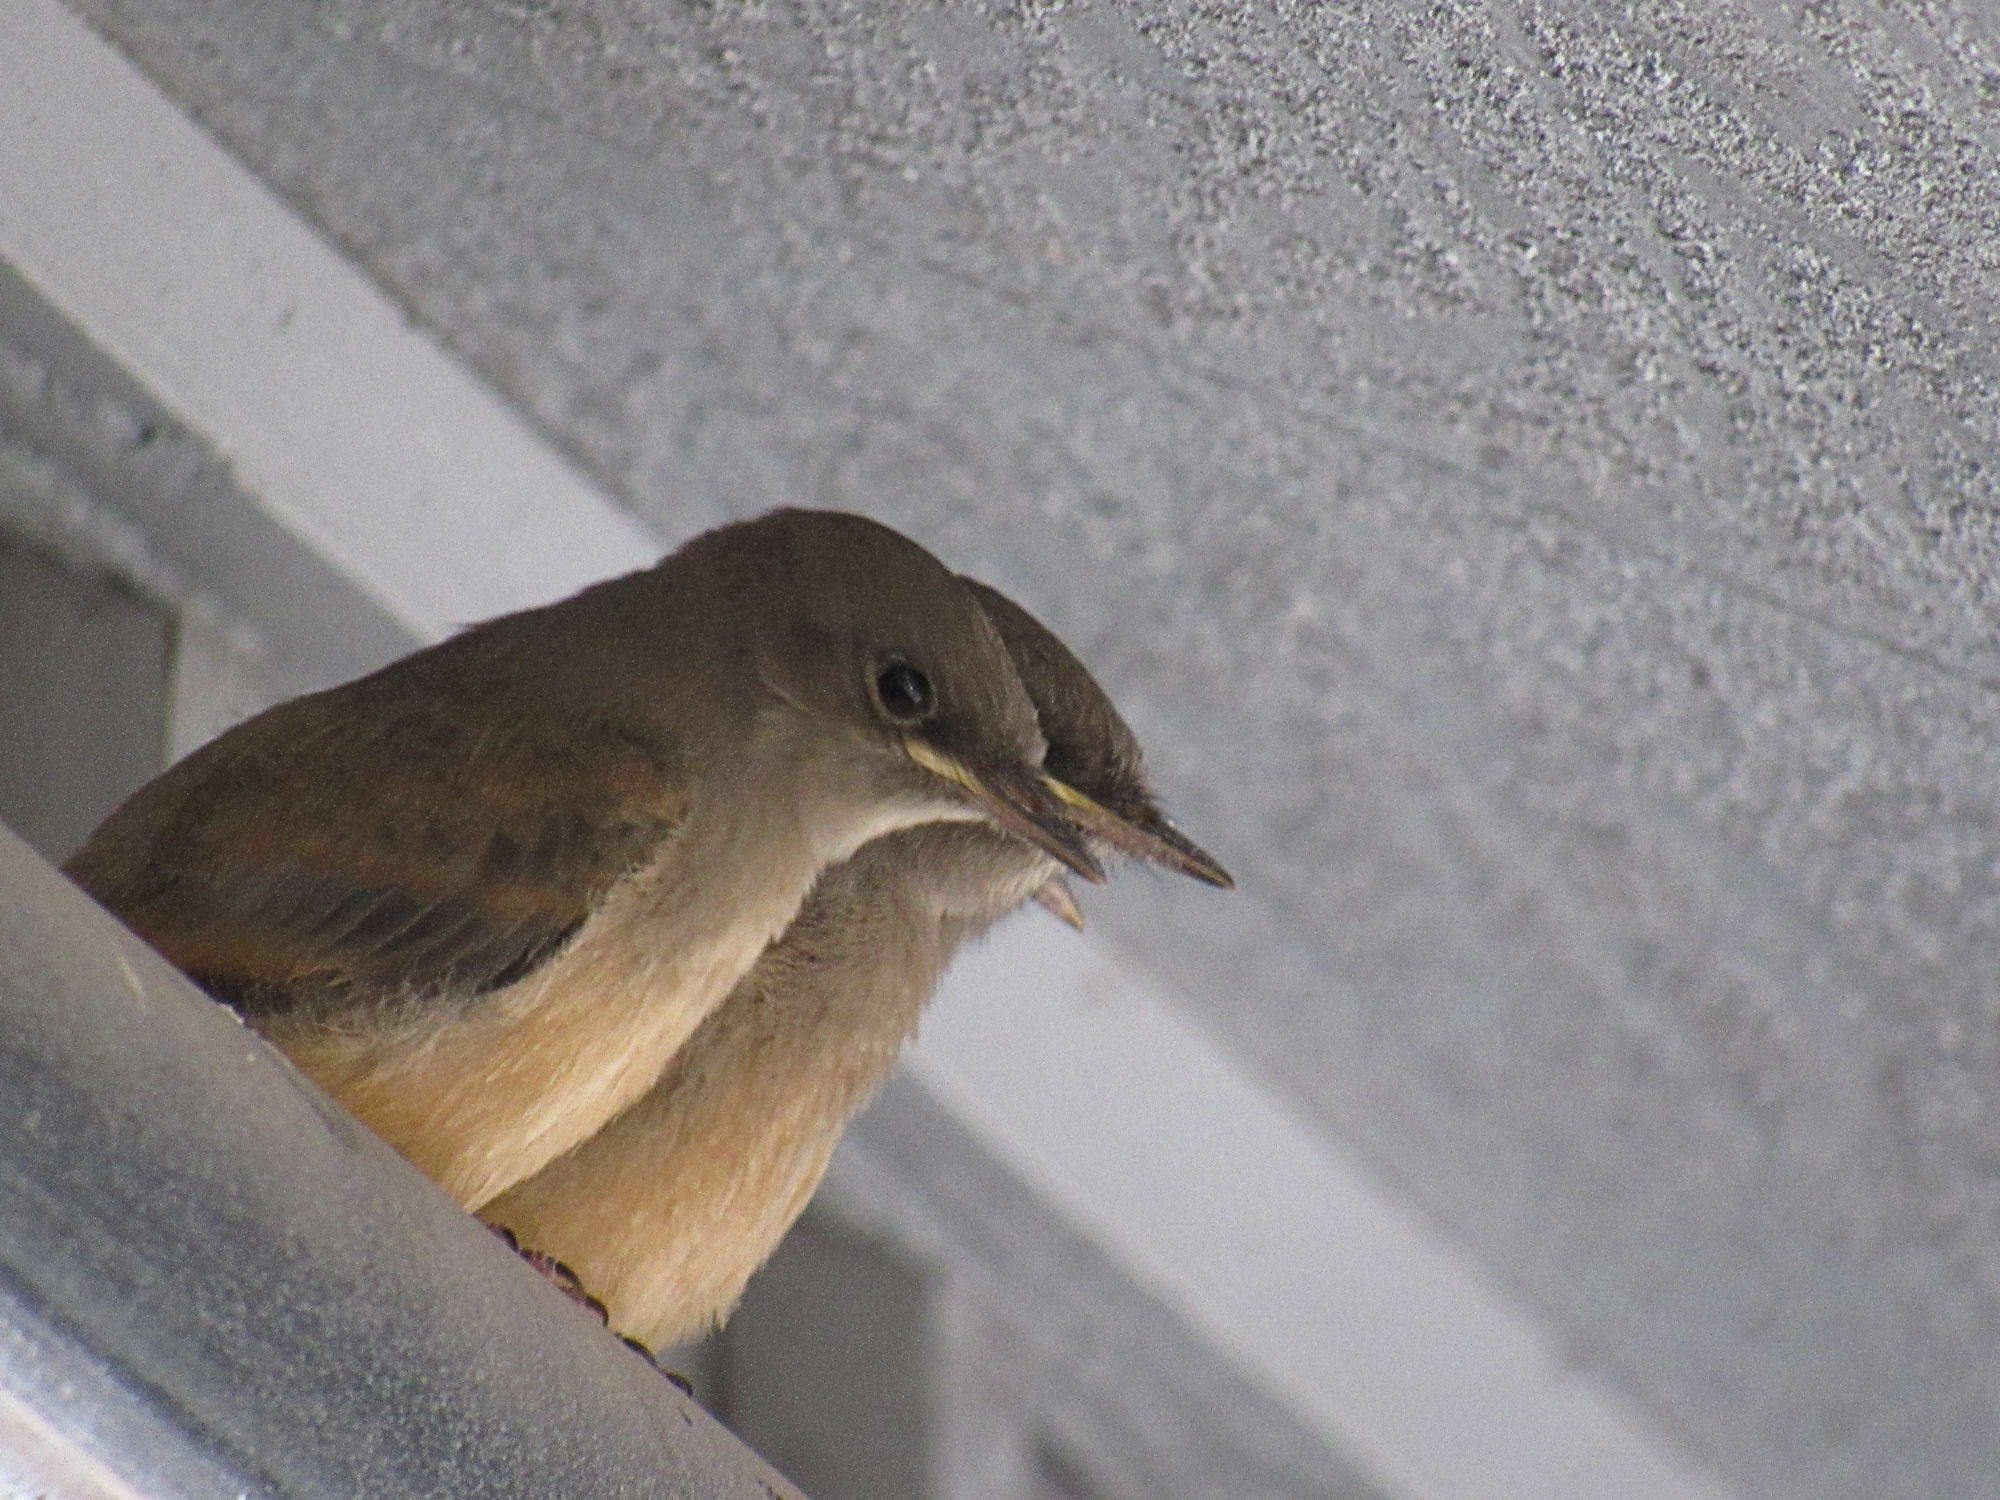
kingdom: Animalia
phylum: Chordata
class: Aves
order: Passeriformes
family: Tyrannidae
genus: Sayornis
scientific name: Sayornis saya
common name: Say's phoebe
